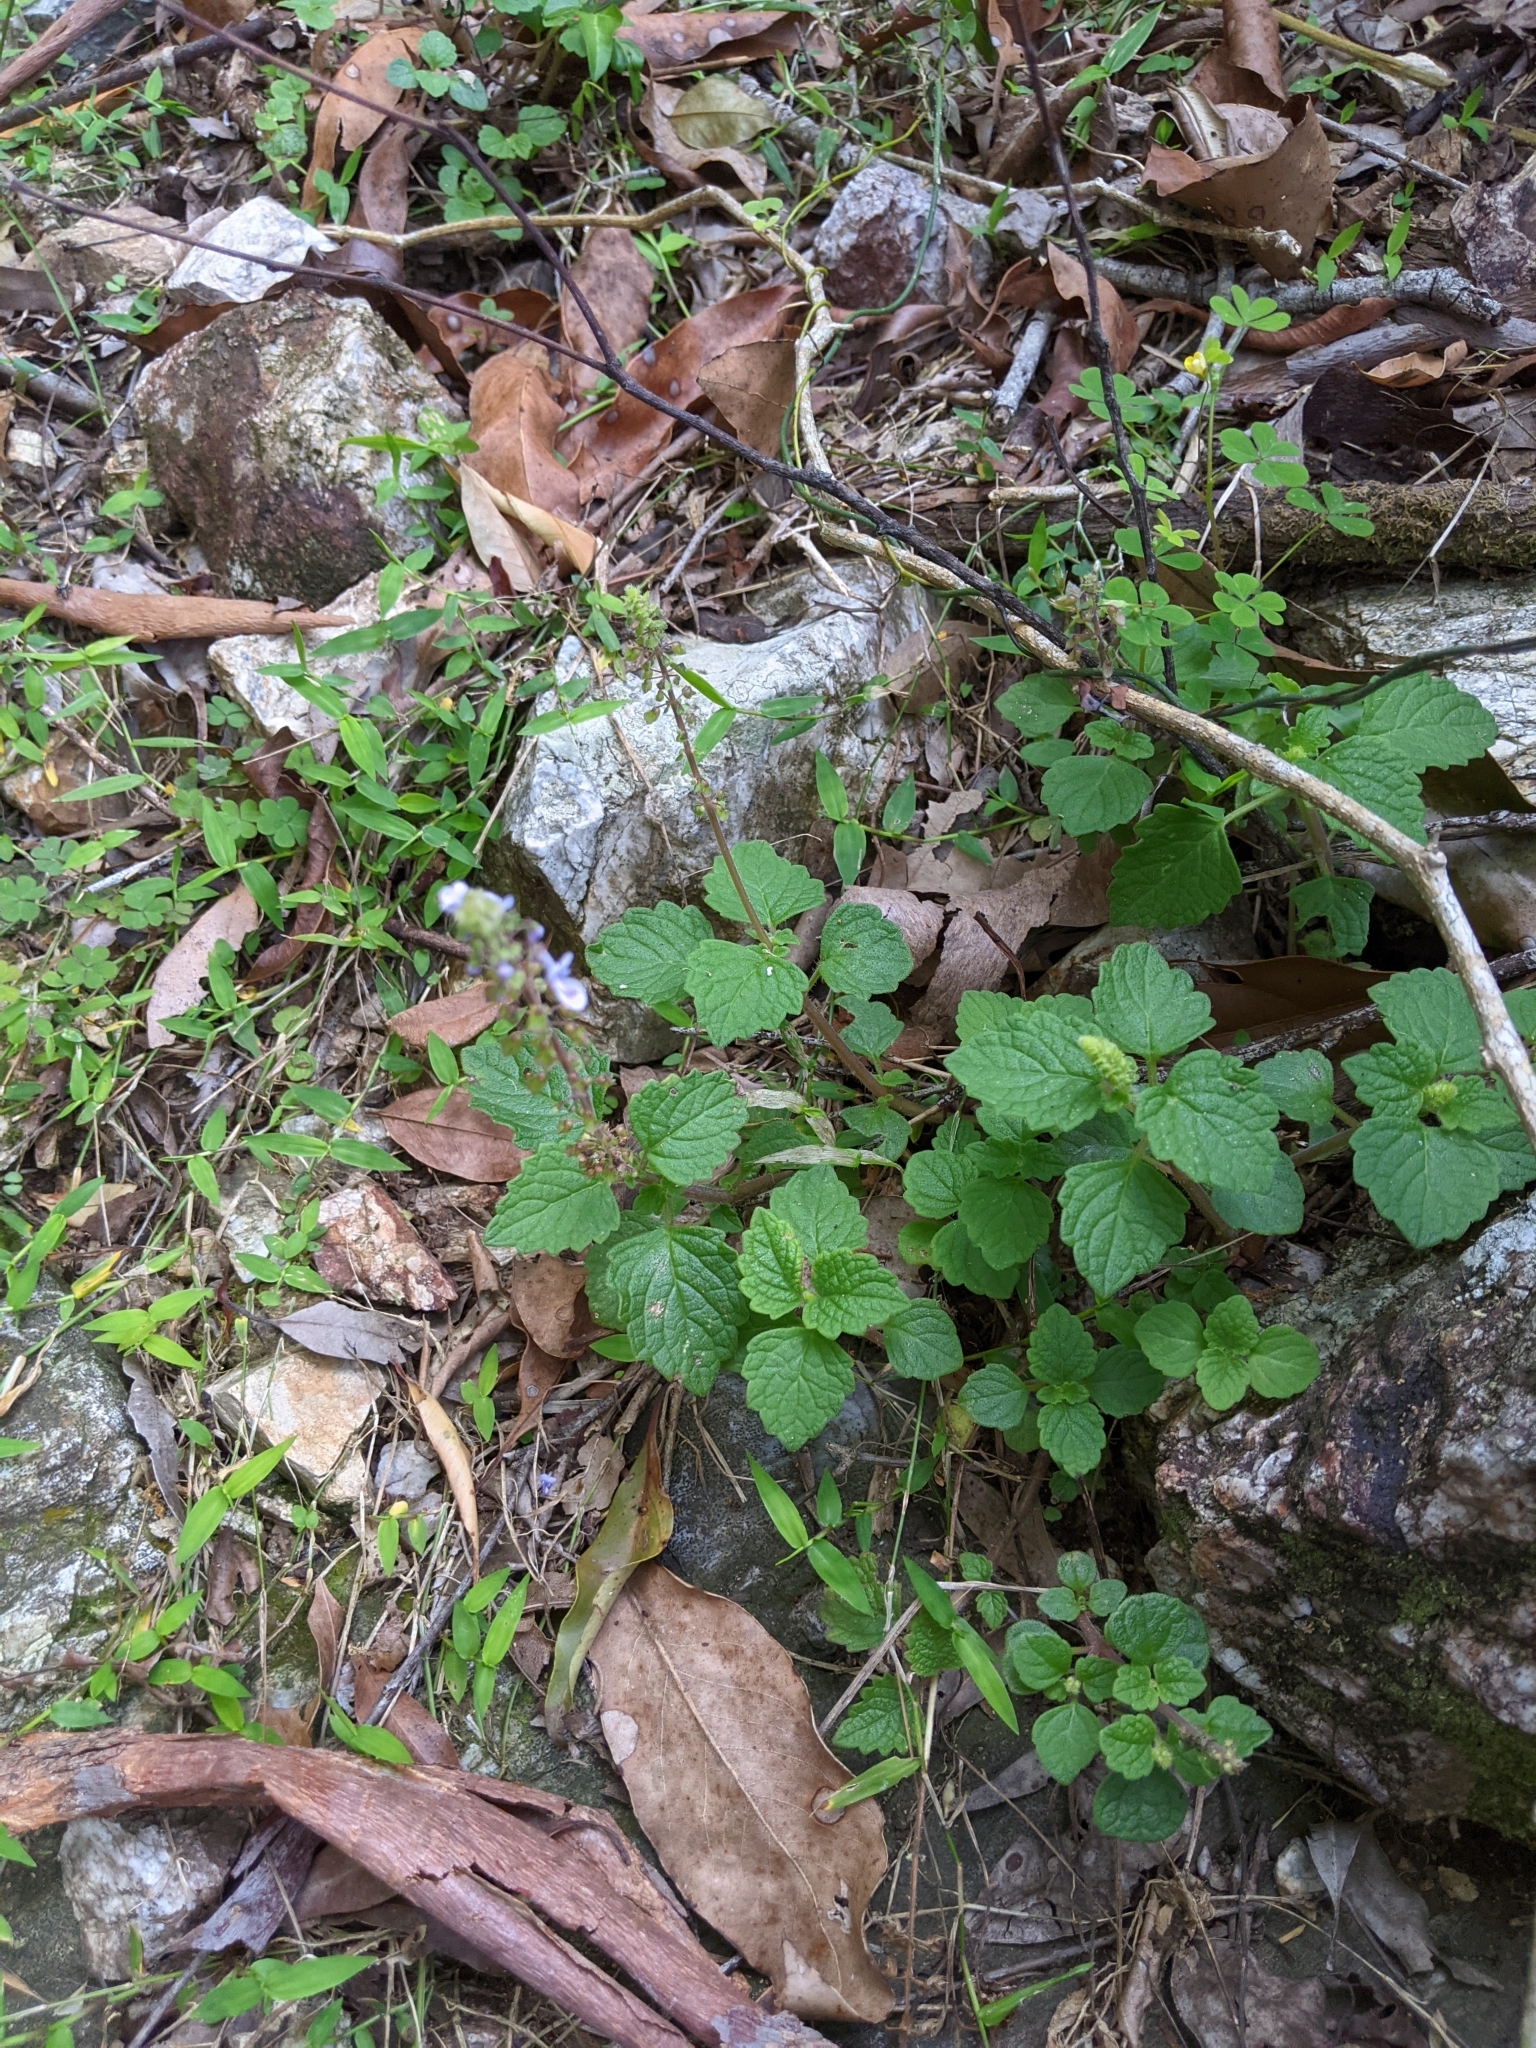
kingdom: Plantae
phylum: Tracheophyta
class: Magnoliopsida
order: Lamiales
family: Lamiaceae
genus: Coleus
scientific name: Coleus australis
